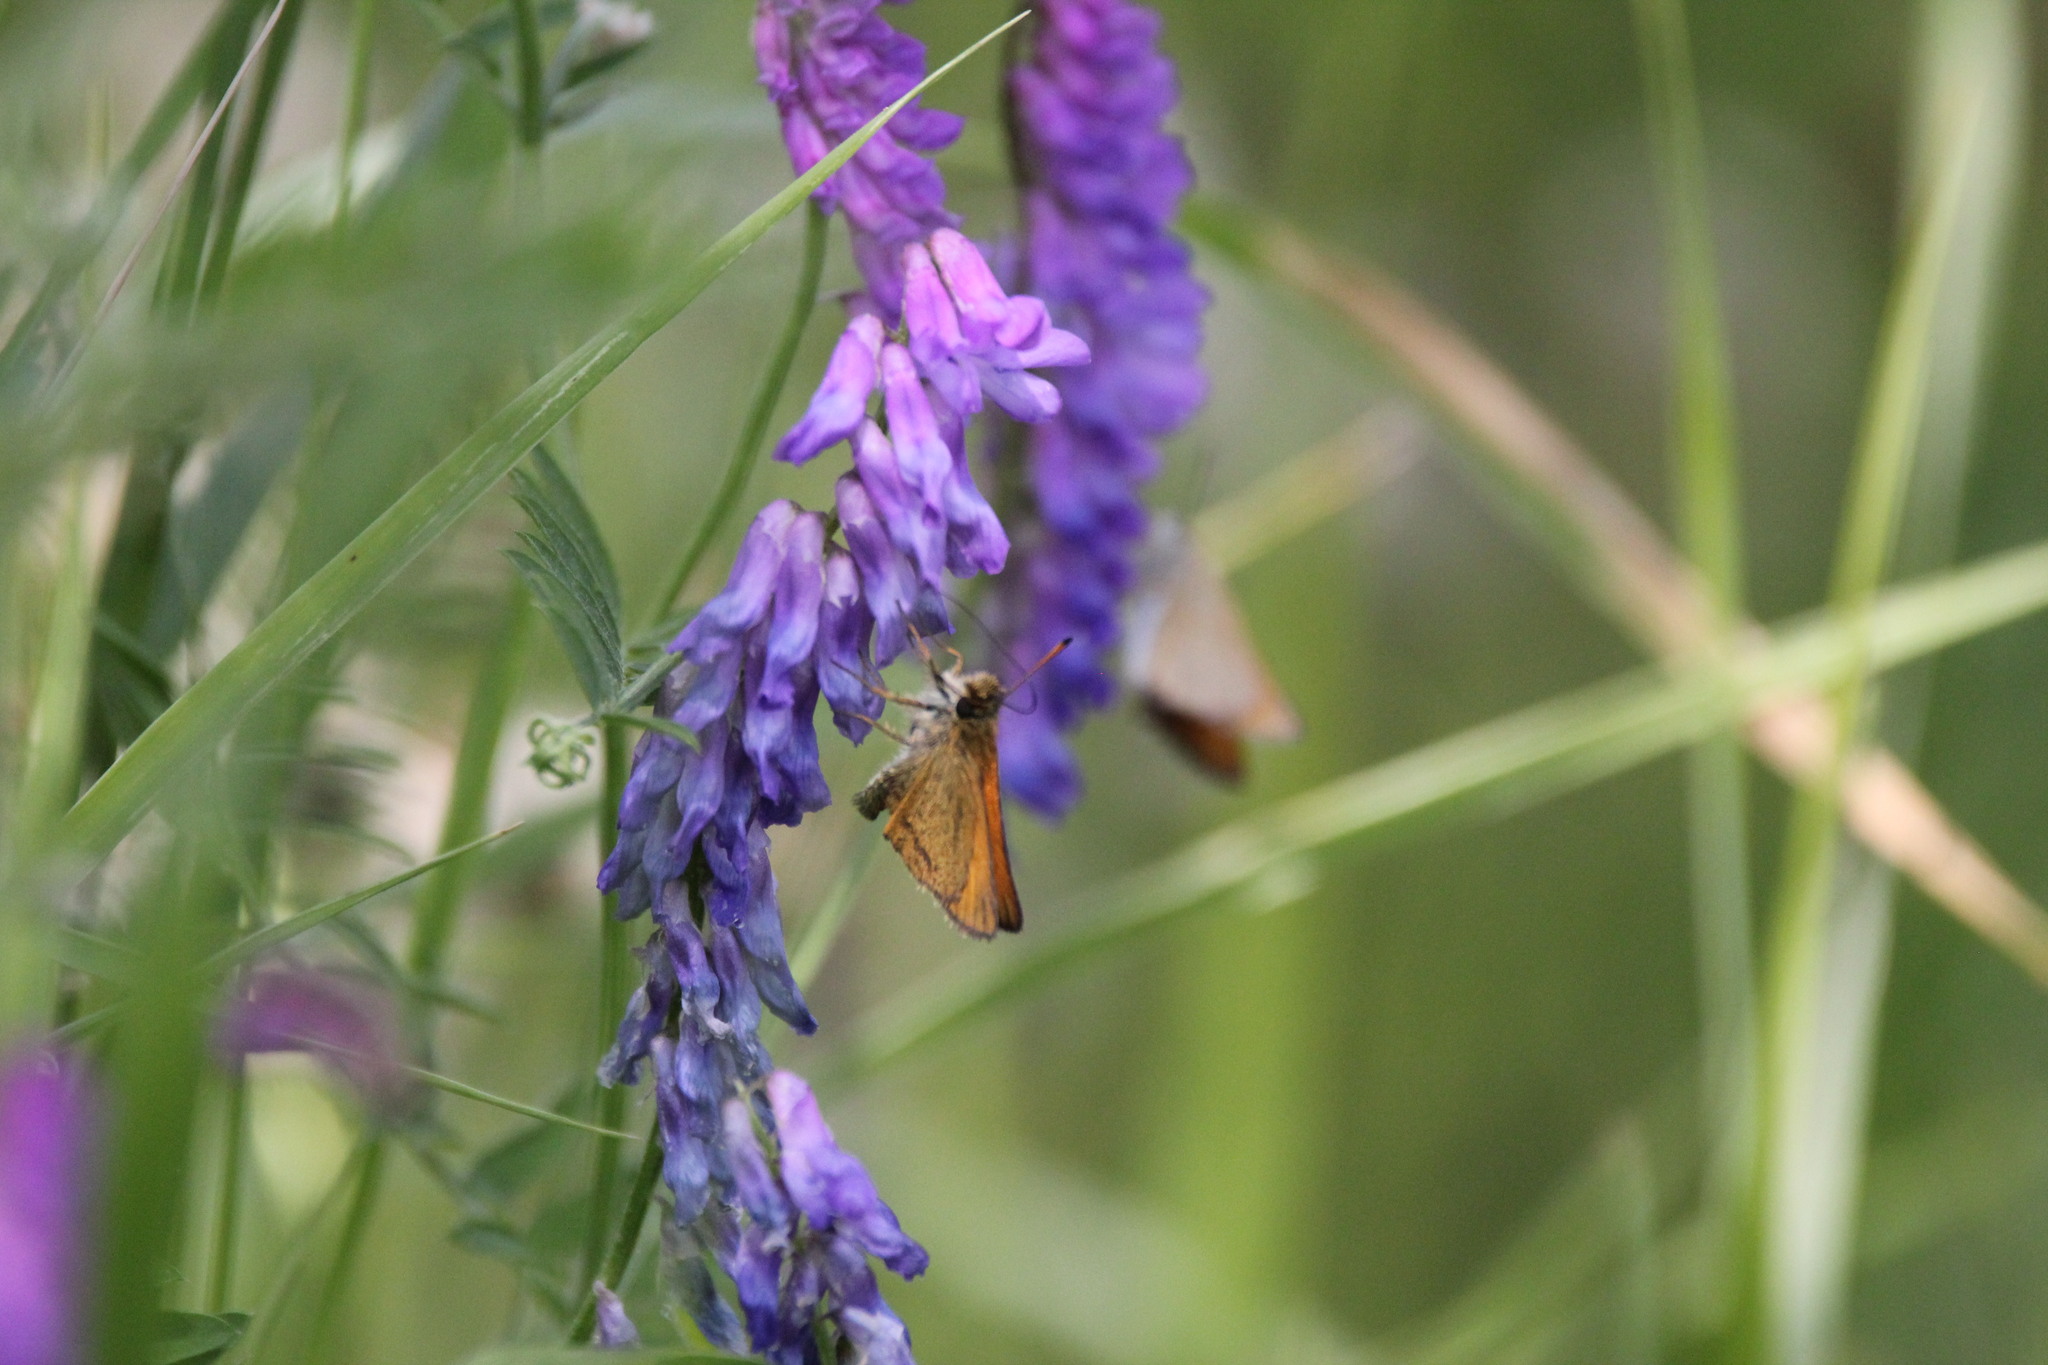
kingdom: Animalia
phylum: Arthropoda
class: Insecta
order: Lepidoptera
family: Hesperiidae
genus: Thymelicus
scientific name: Thymelicus lineola
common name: Essex skipper
